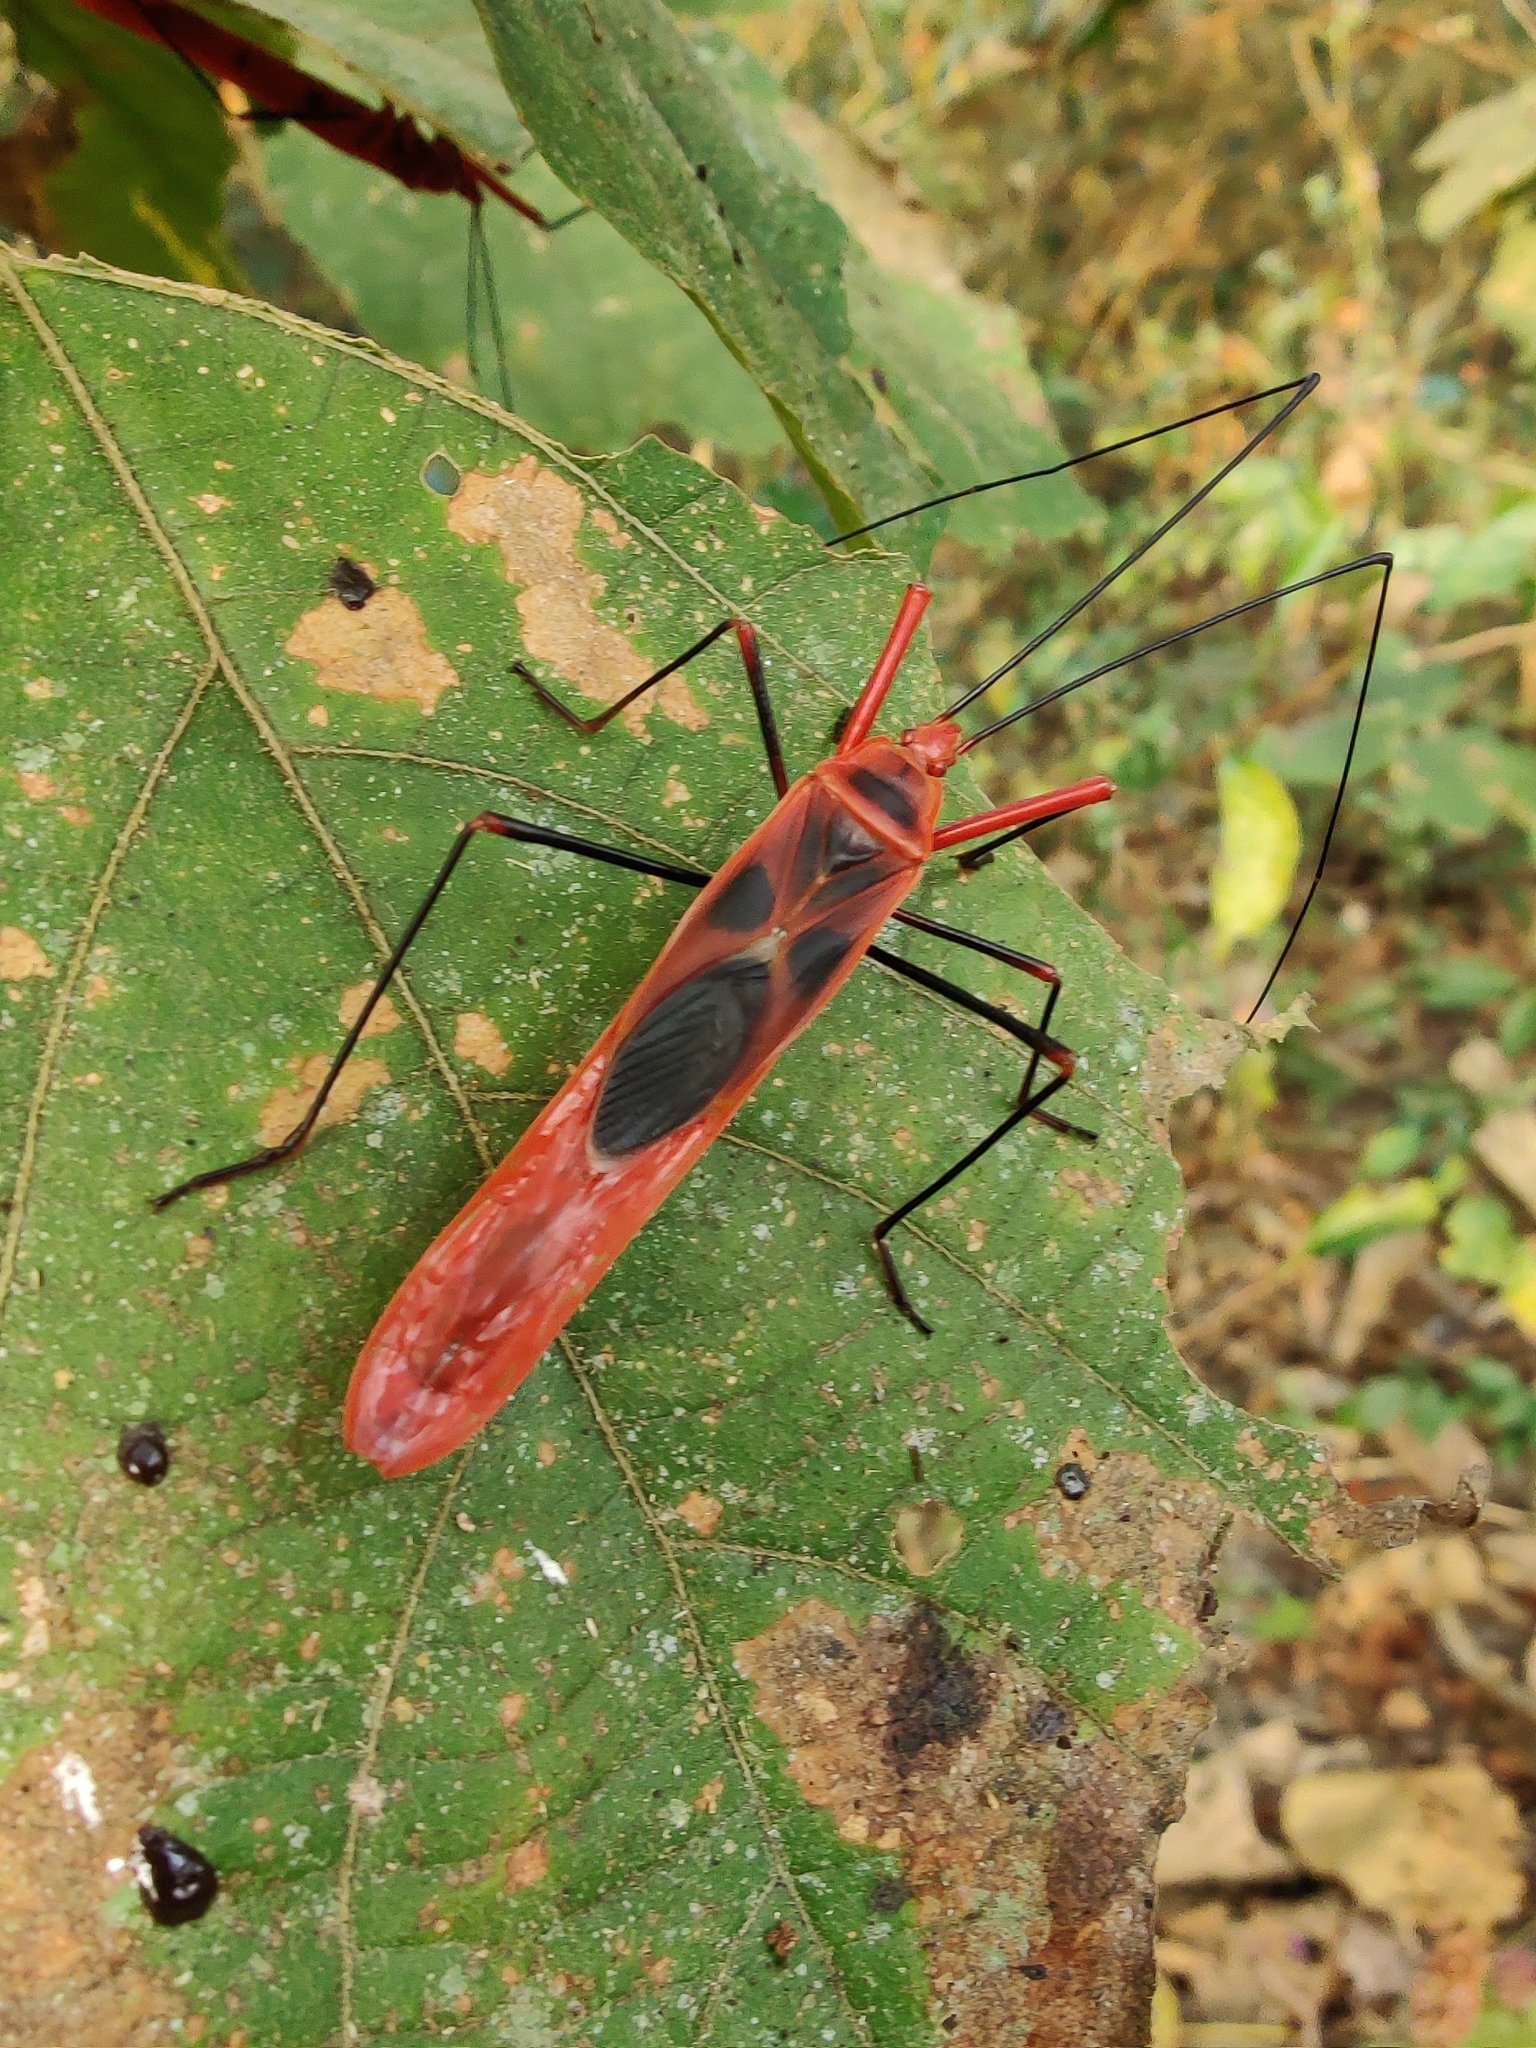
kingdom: Animalia
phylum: Arthropoda
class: Insecta
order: Hemiptera
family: Largidae
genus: Macrocheraia
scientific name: Macrocheraia grandis
